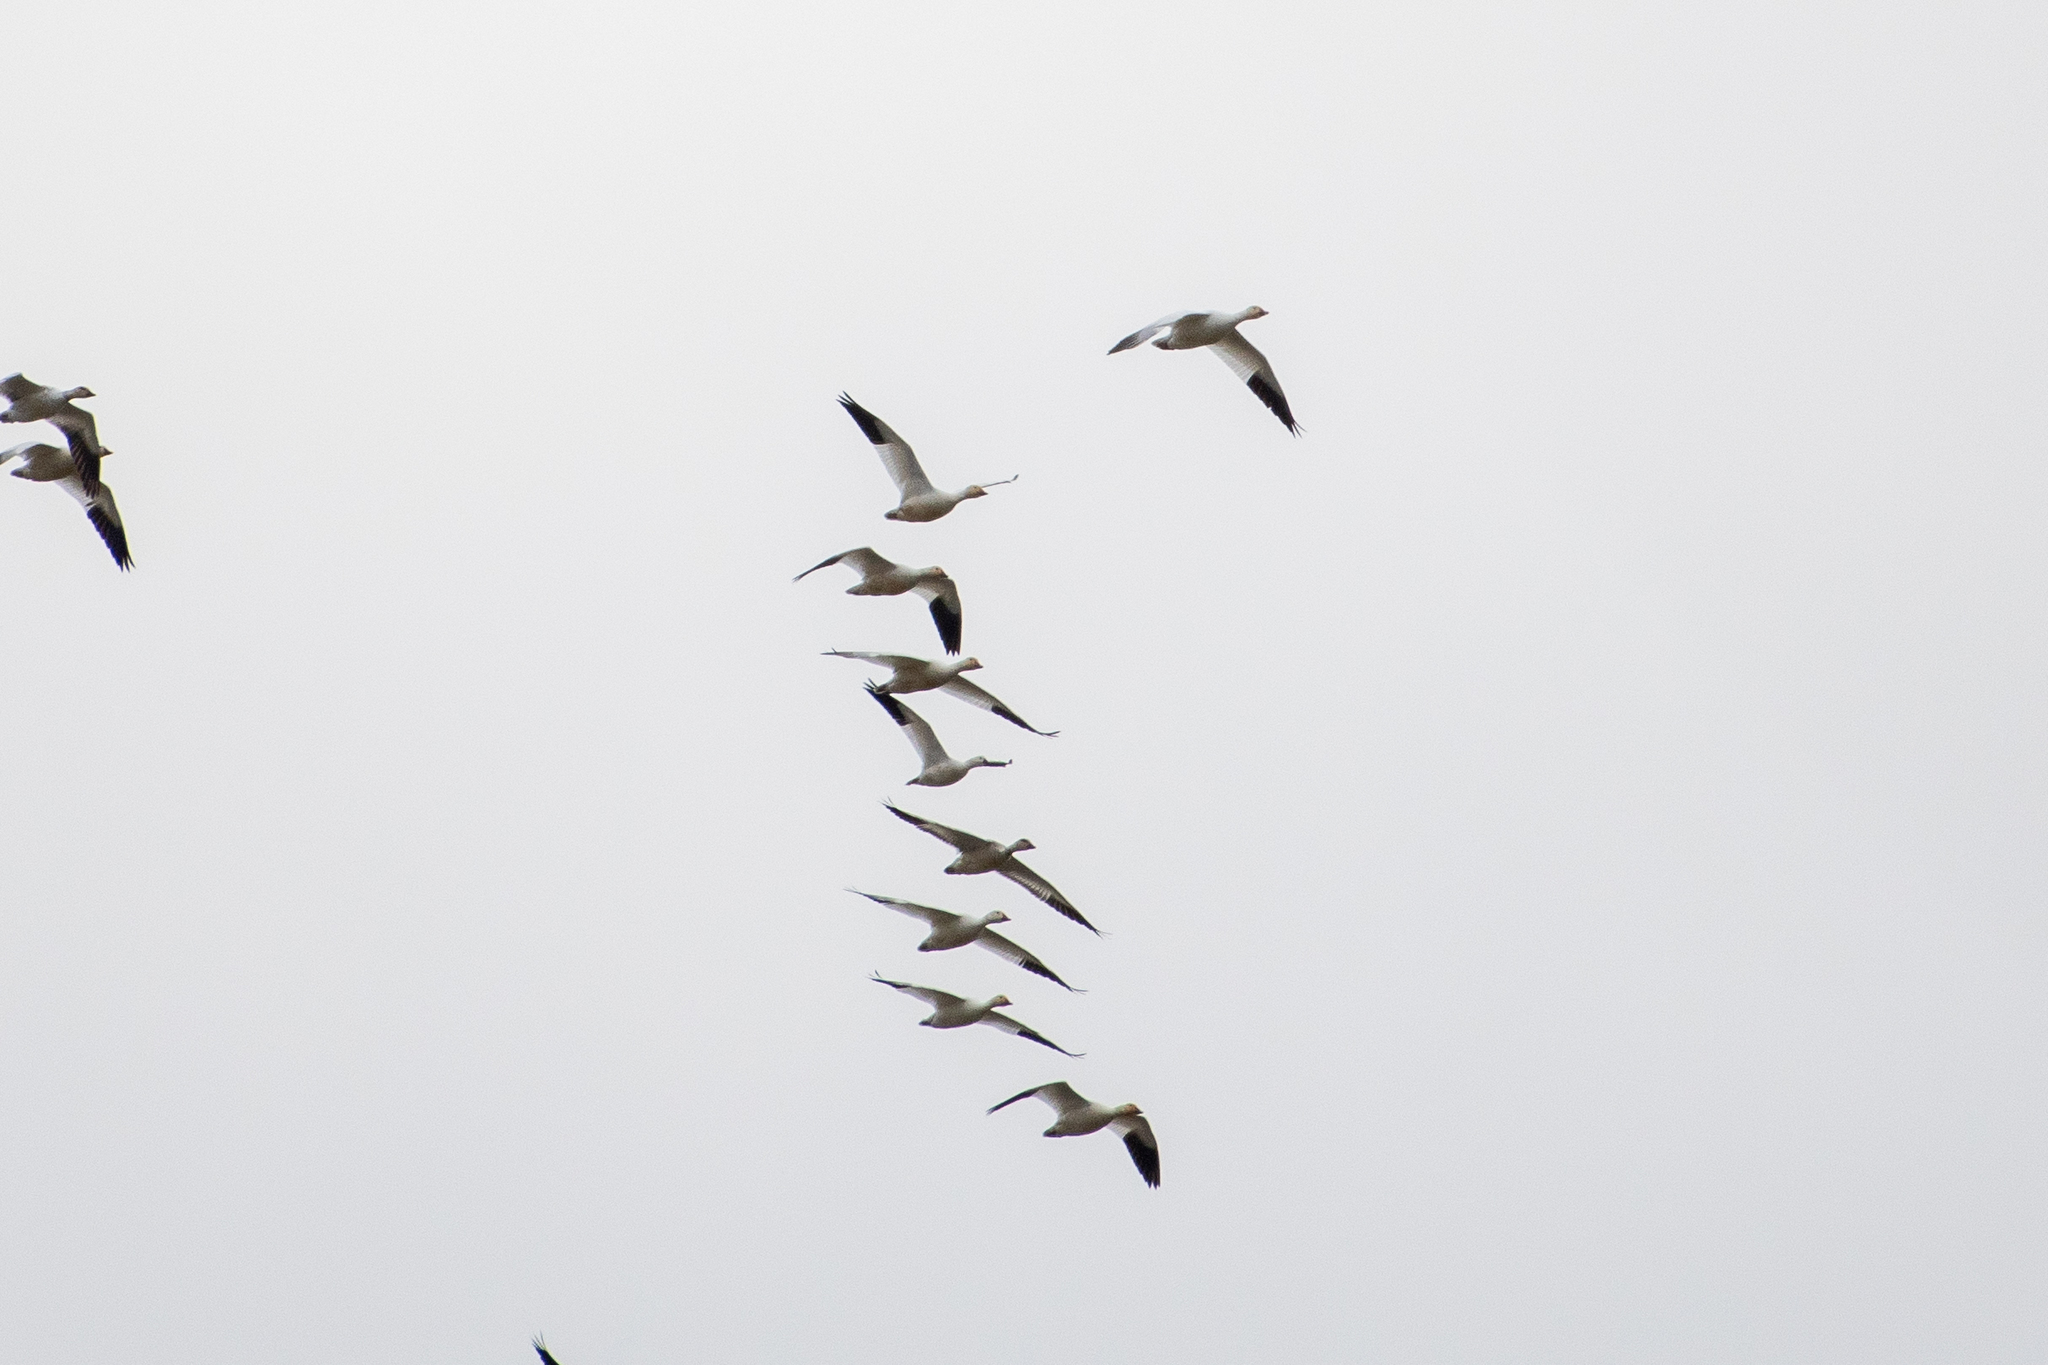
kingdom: Animalia
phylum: Chordata
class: Aves
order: Anseriformes
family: Anatidae
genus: Anser
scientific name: Anser caerulescens
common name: Snow goose
